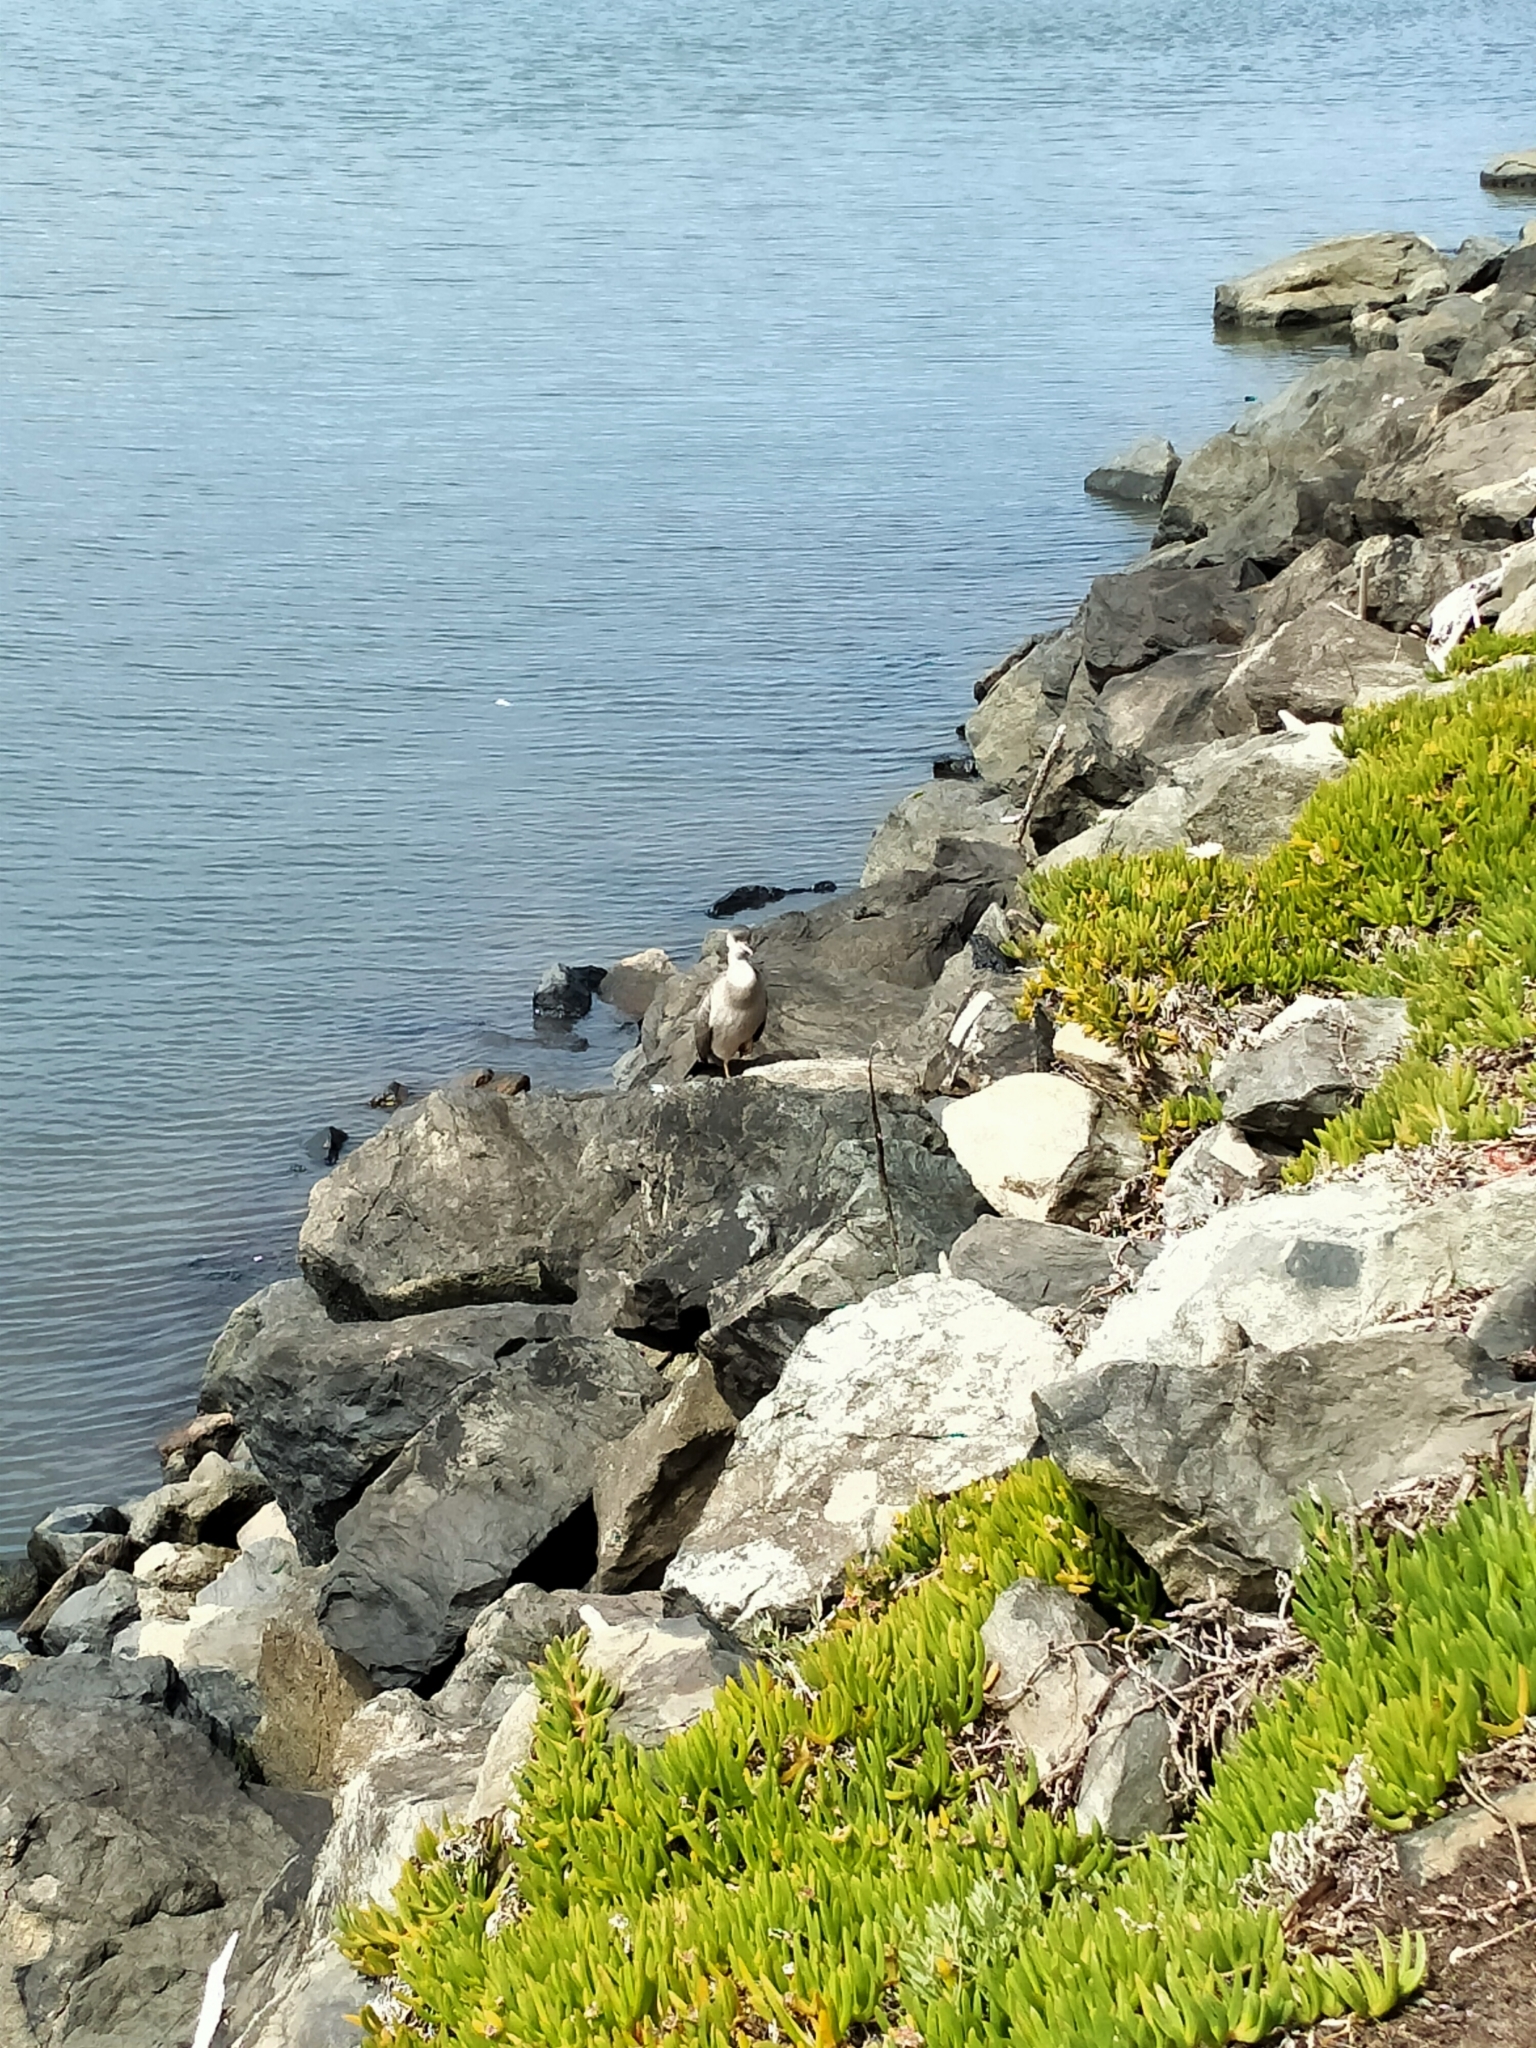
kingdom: Animalia
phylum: Chordata
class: Aves
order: Suliformes
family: Phalacrocoracidae
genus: Phalacrocorax
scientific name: Phalacrocorax punctatus
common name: Spotted shag
